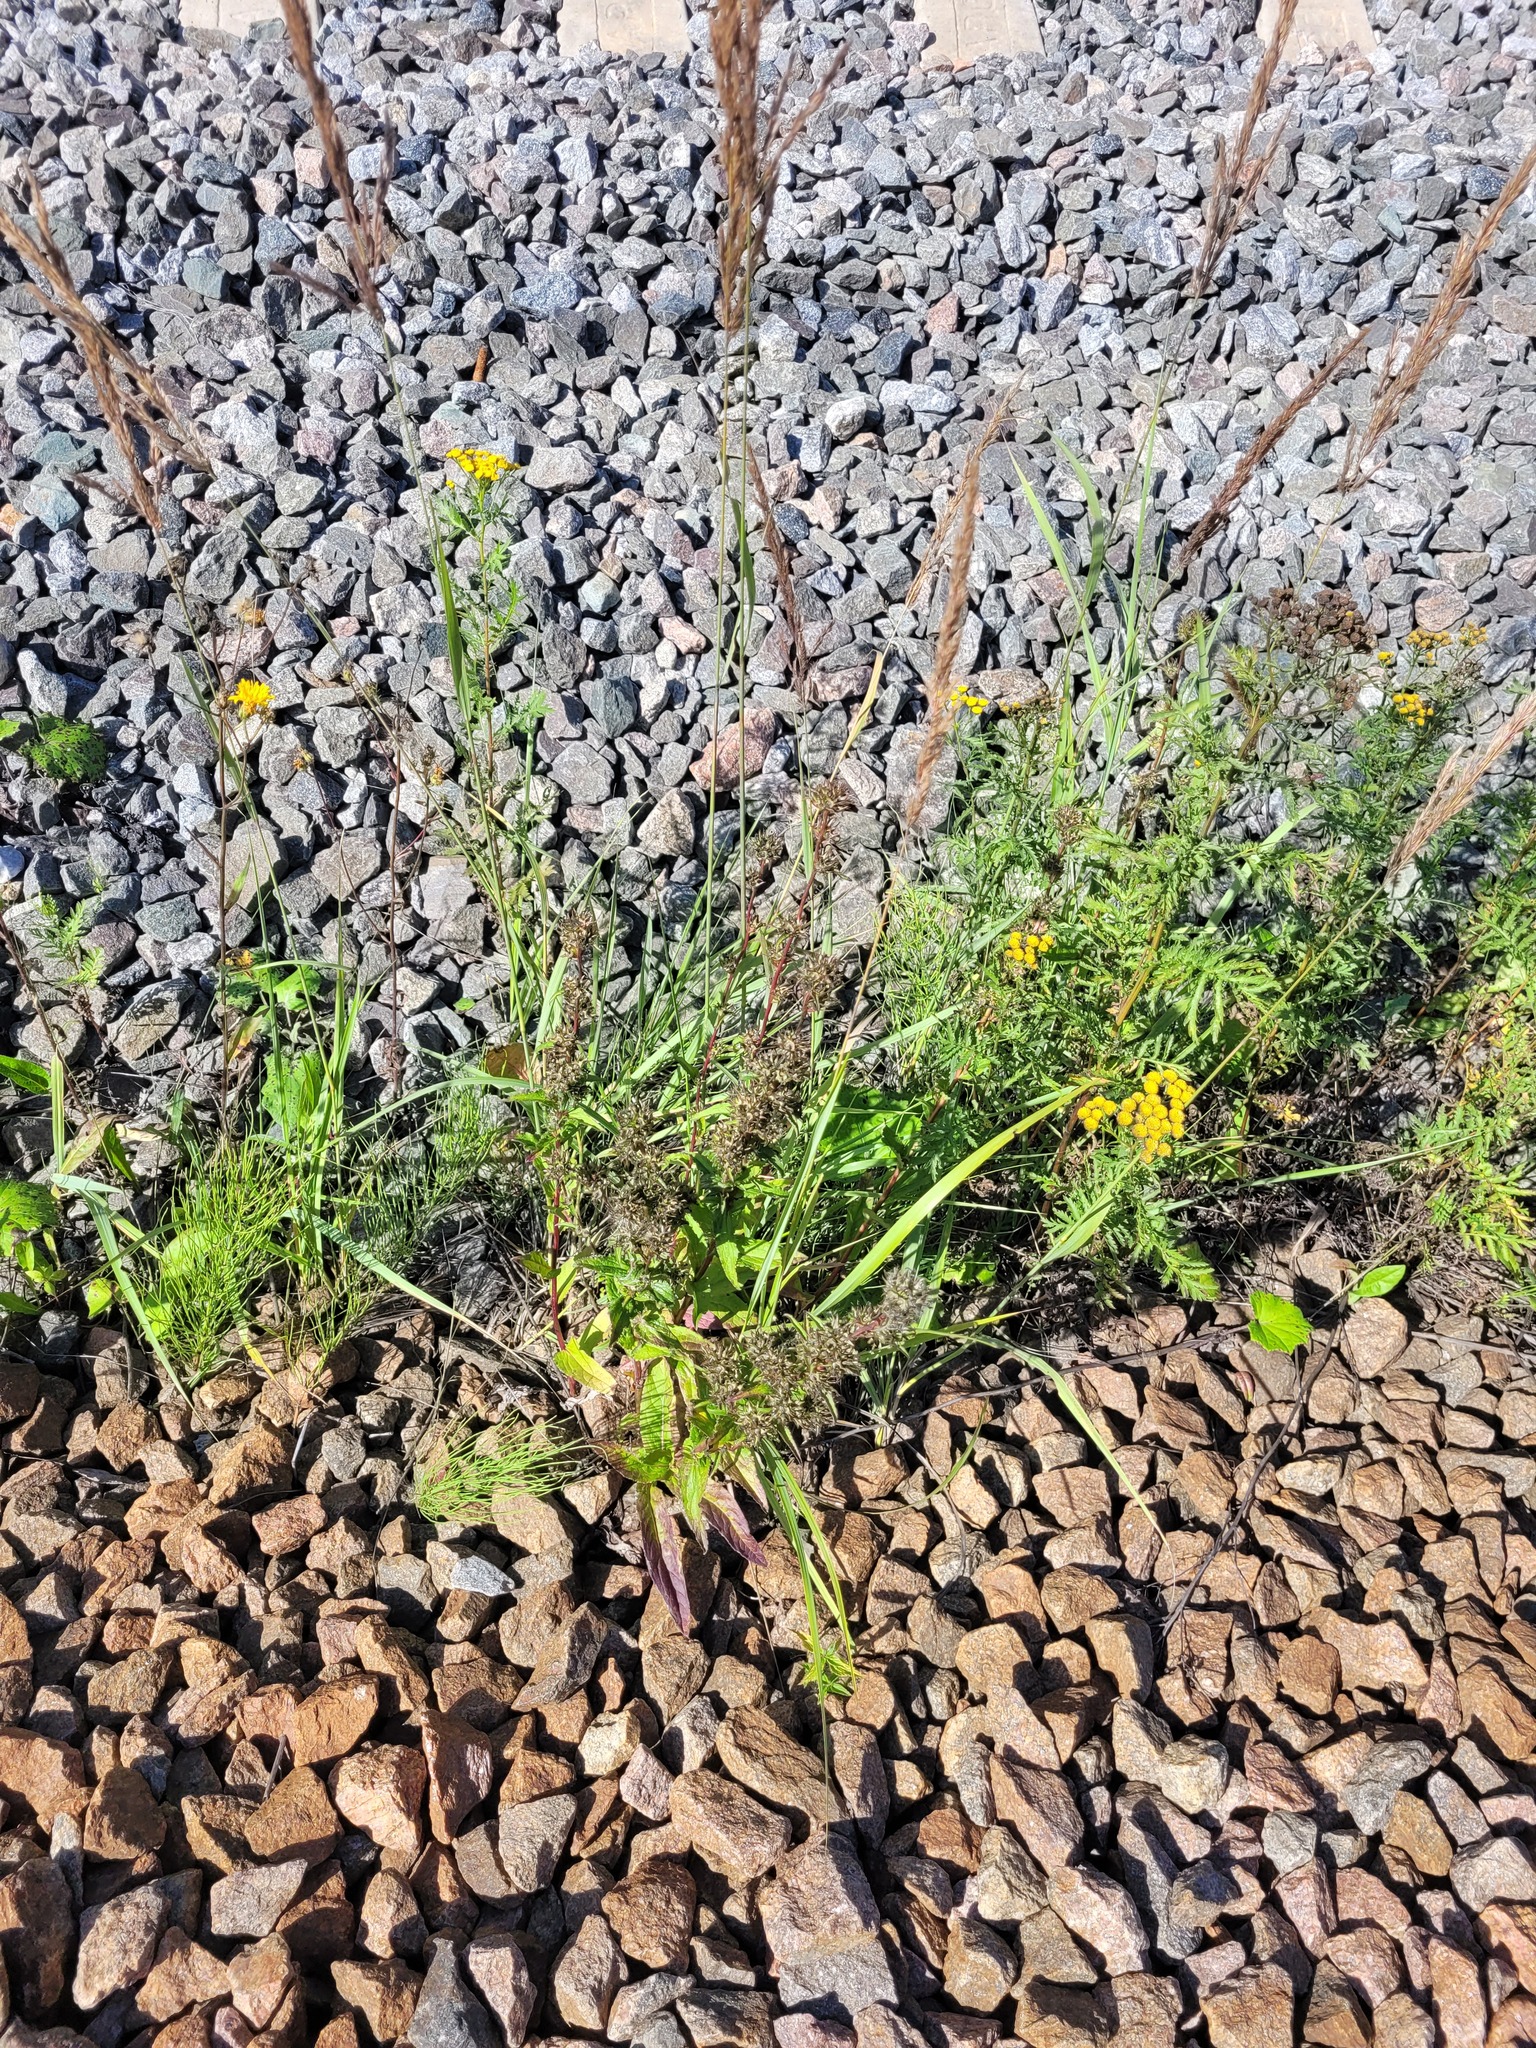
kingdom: Plantae
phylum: Tracheophyta
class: Magnoliopsida
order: Asterales
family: Asteraceae
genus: Solidago
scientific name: Solidago virgaurea
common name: Goldenrod
